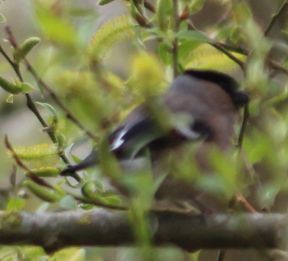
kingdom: Animalia
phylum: Chordata
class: Aves
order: Passeriformes
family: Fringillidae
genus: Pyrrhula
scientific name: Pyrrhula pyrrhula
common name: Eurasian bullfinch
